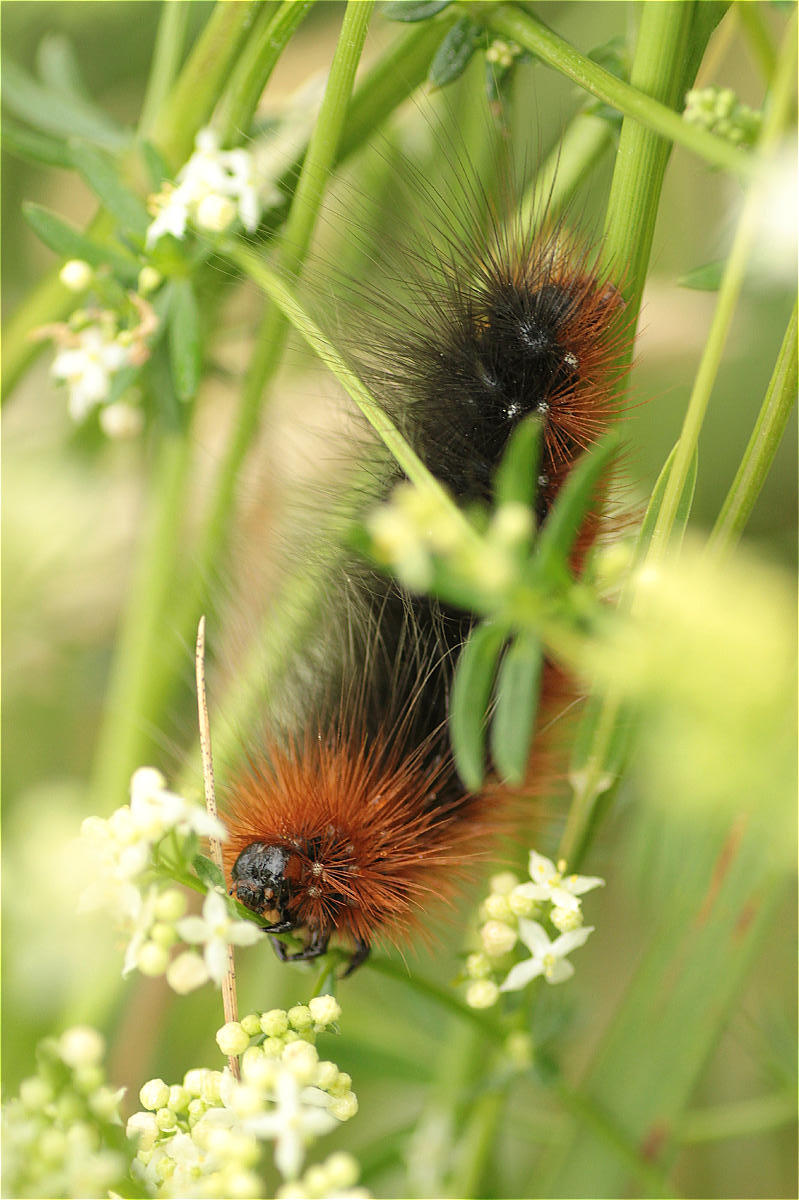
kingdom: Animalia
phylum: Arthropoda
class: Insecta
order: Lepidoptera
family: Erebidae
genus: Arctia
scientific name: Arctia caja
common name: Garden tiger
